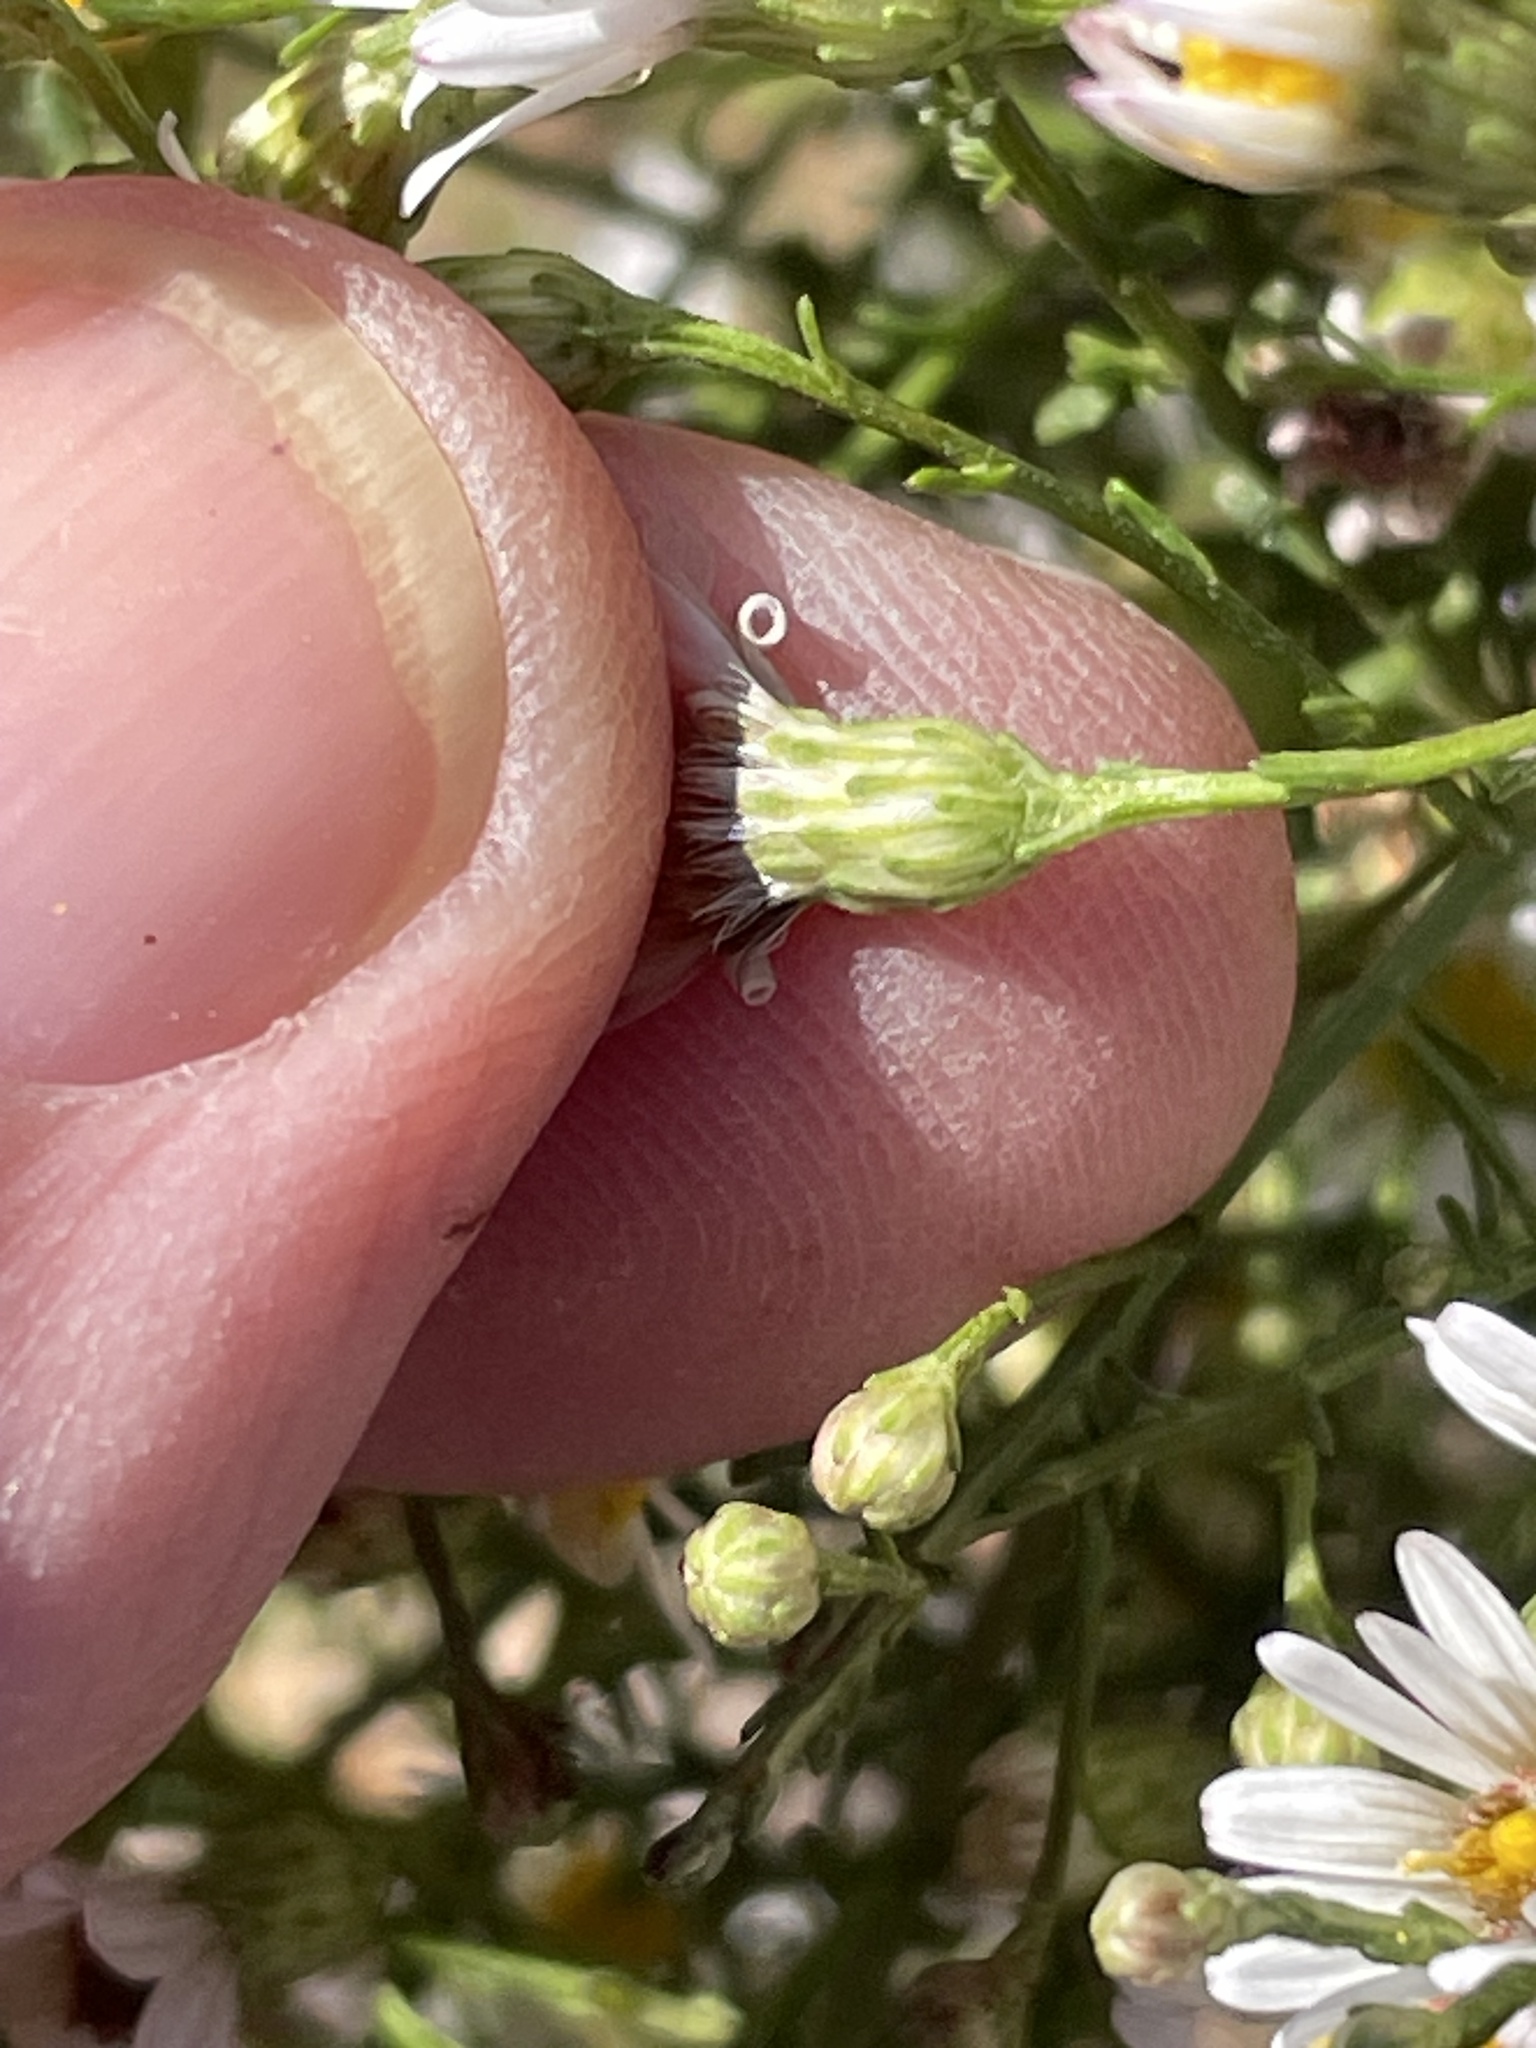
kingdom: Plantae
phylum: Tracheophyta
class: Magnoliopsida
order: Asterales
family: Asteraceae
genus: Symphyotrichum
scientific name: Symphyotrichum dumosum
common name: Bushy aster
